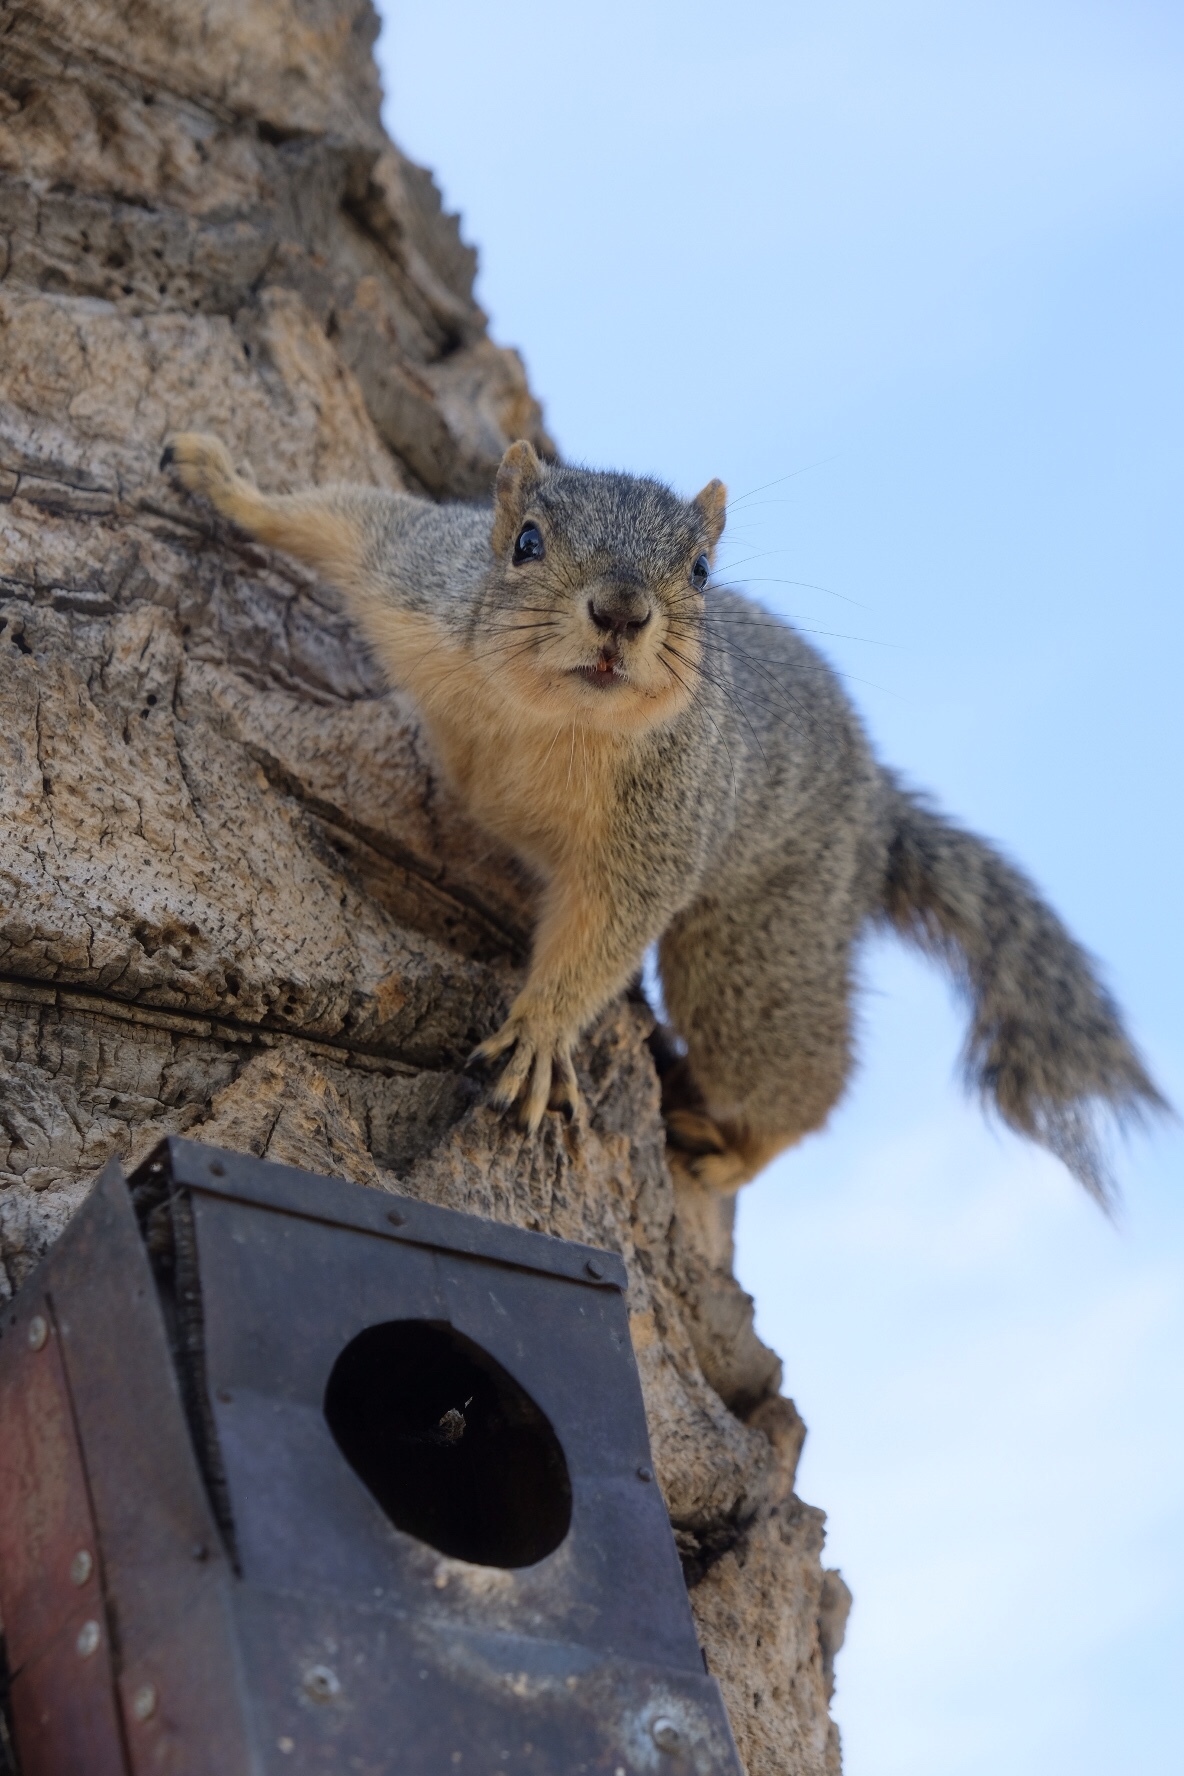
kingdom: Animalia
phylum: Chordata
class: Mammalia
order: Rodentia
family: Sciuridae
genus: Sciurus
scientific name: Sciurus niger
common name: Fox squirrel
